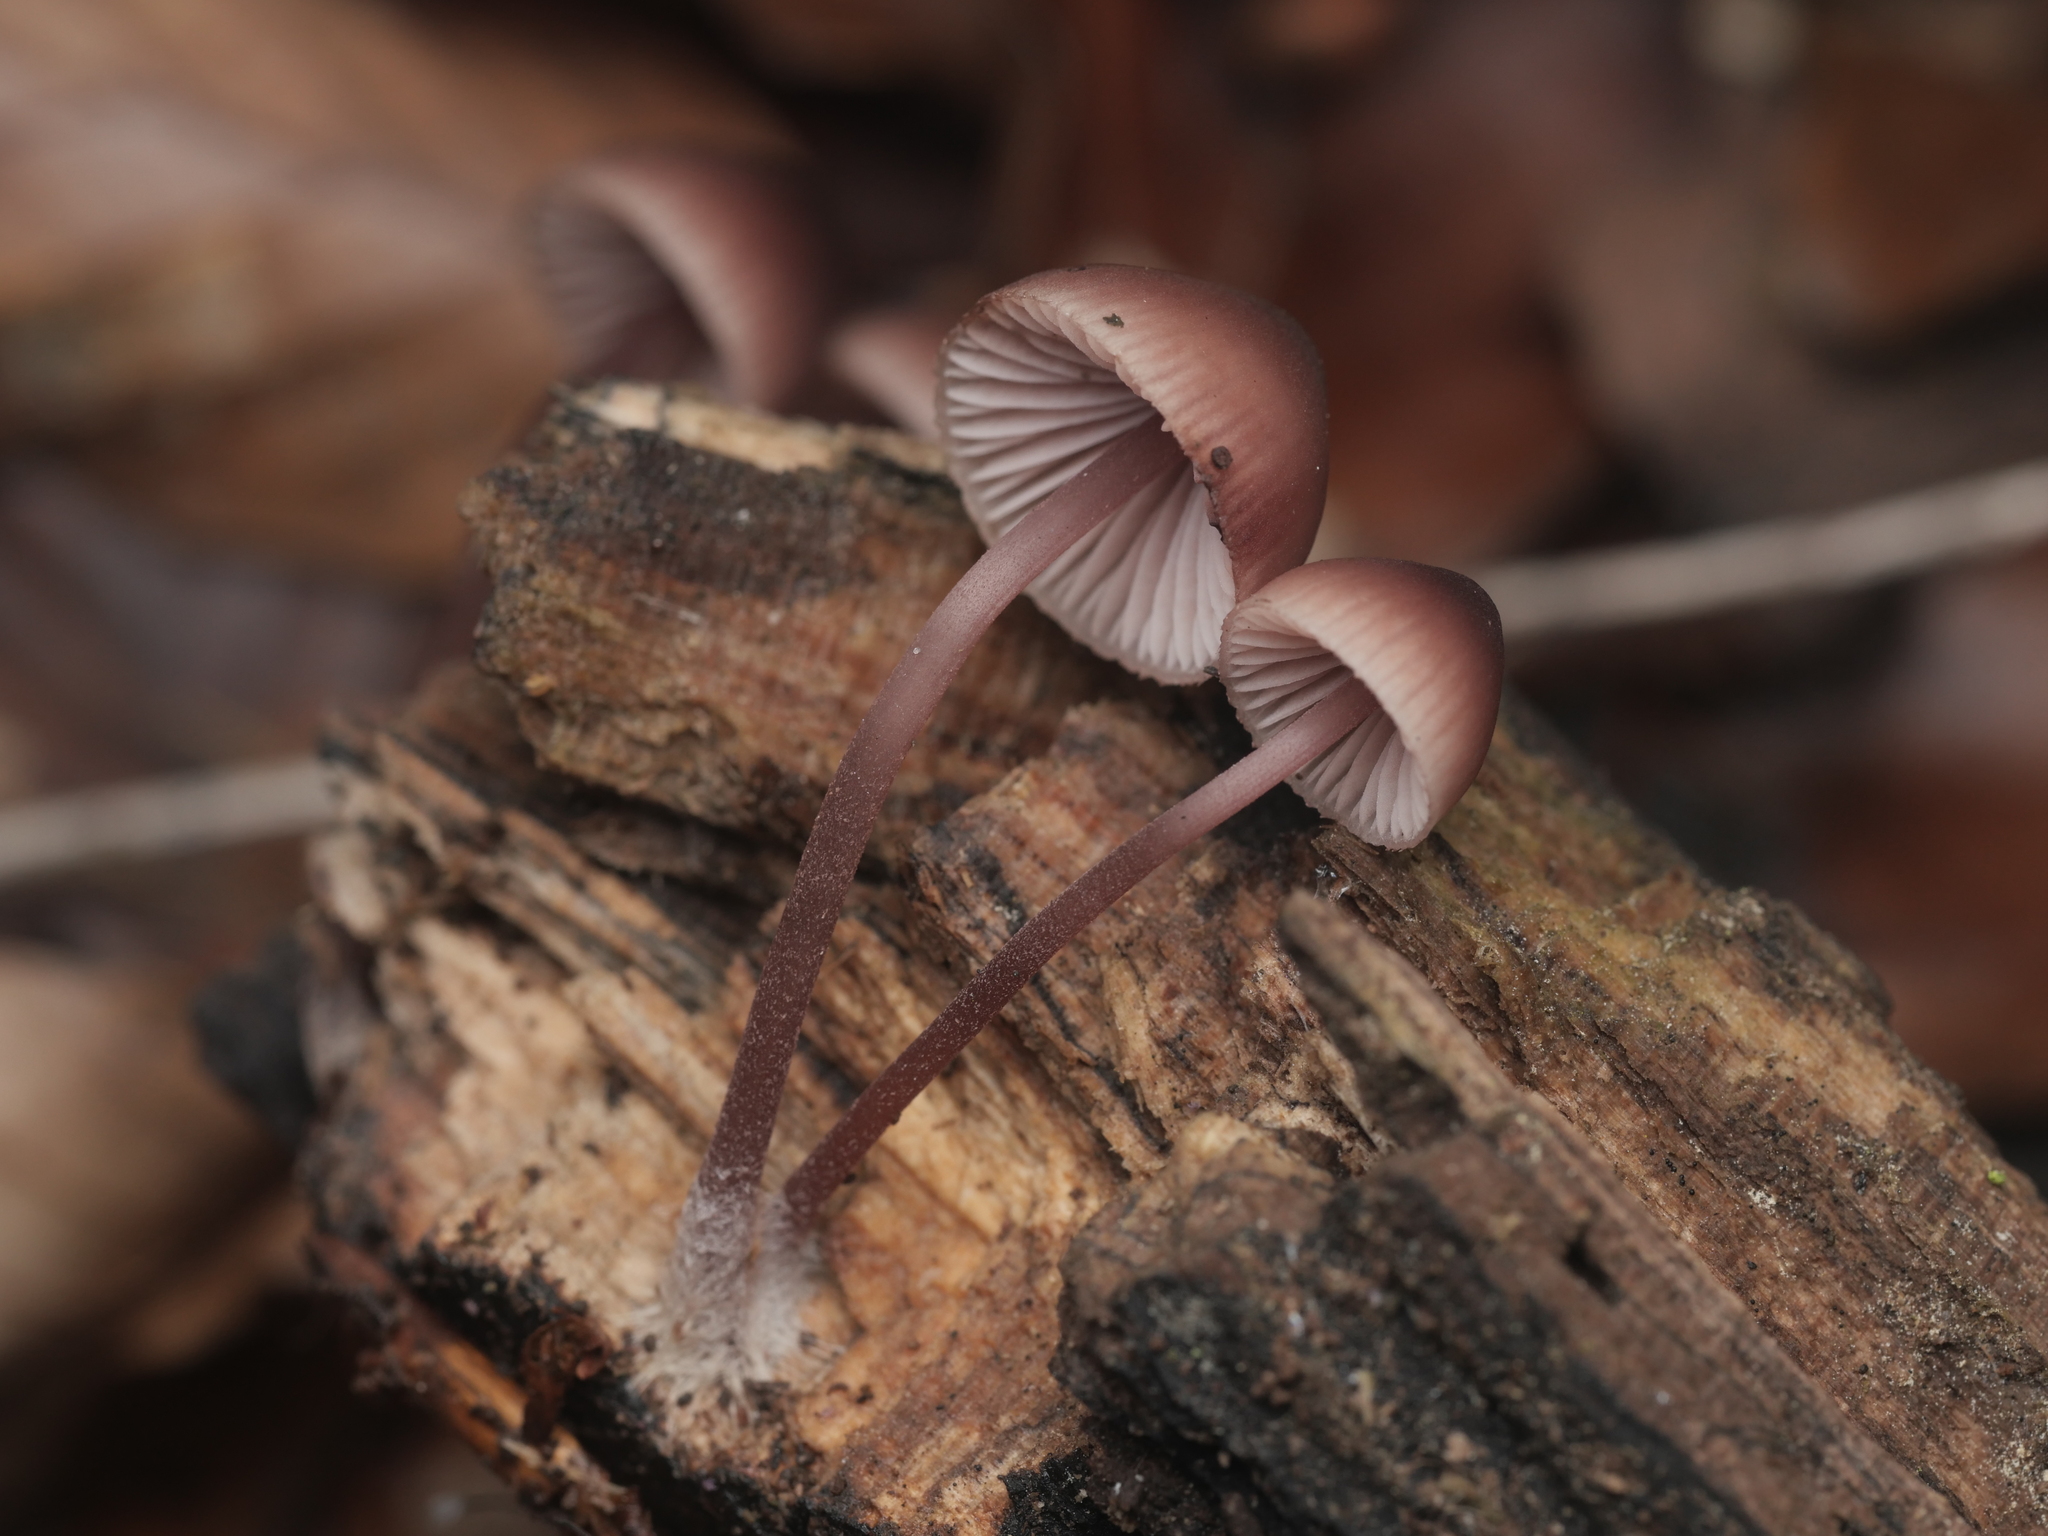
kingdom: Fungi
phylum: Basidiomycota
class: Agaricomycetes
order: Agaricales
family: Mycenaceae
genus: Mycena
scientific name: Mycena haematopus
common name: Burgundydrop bonnet
